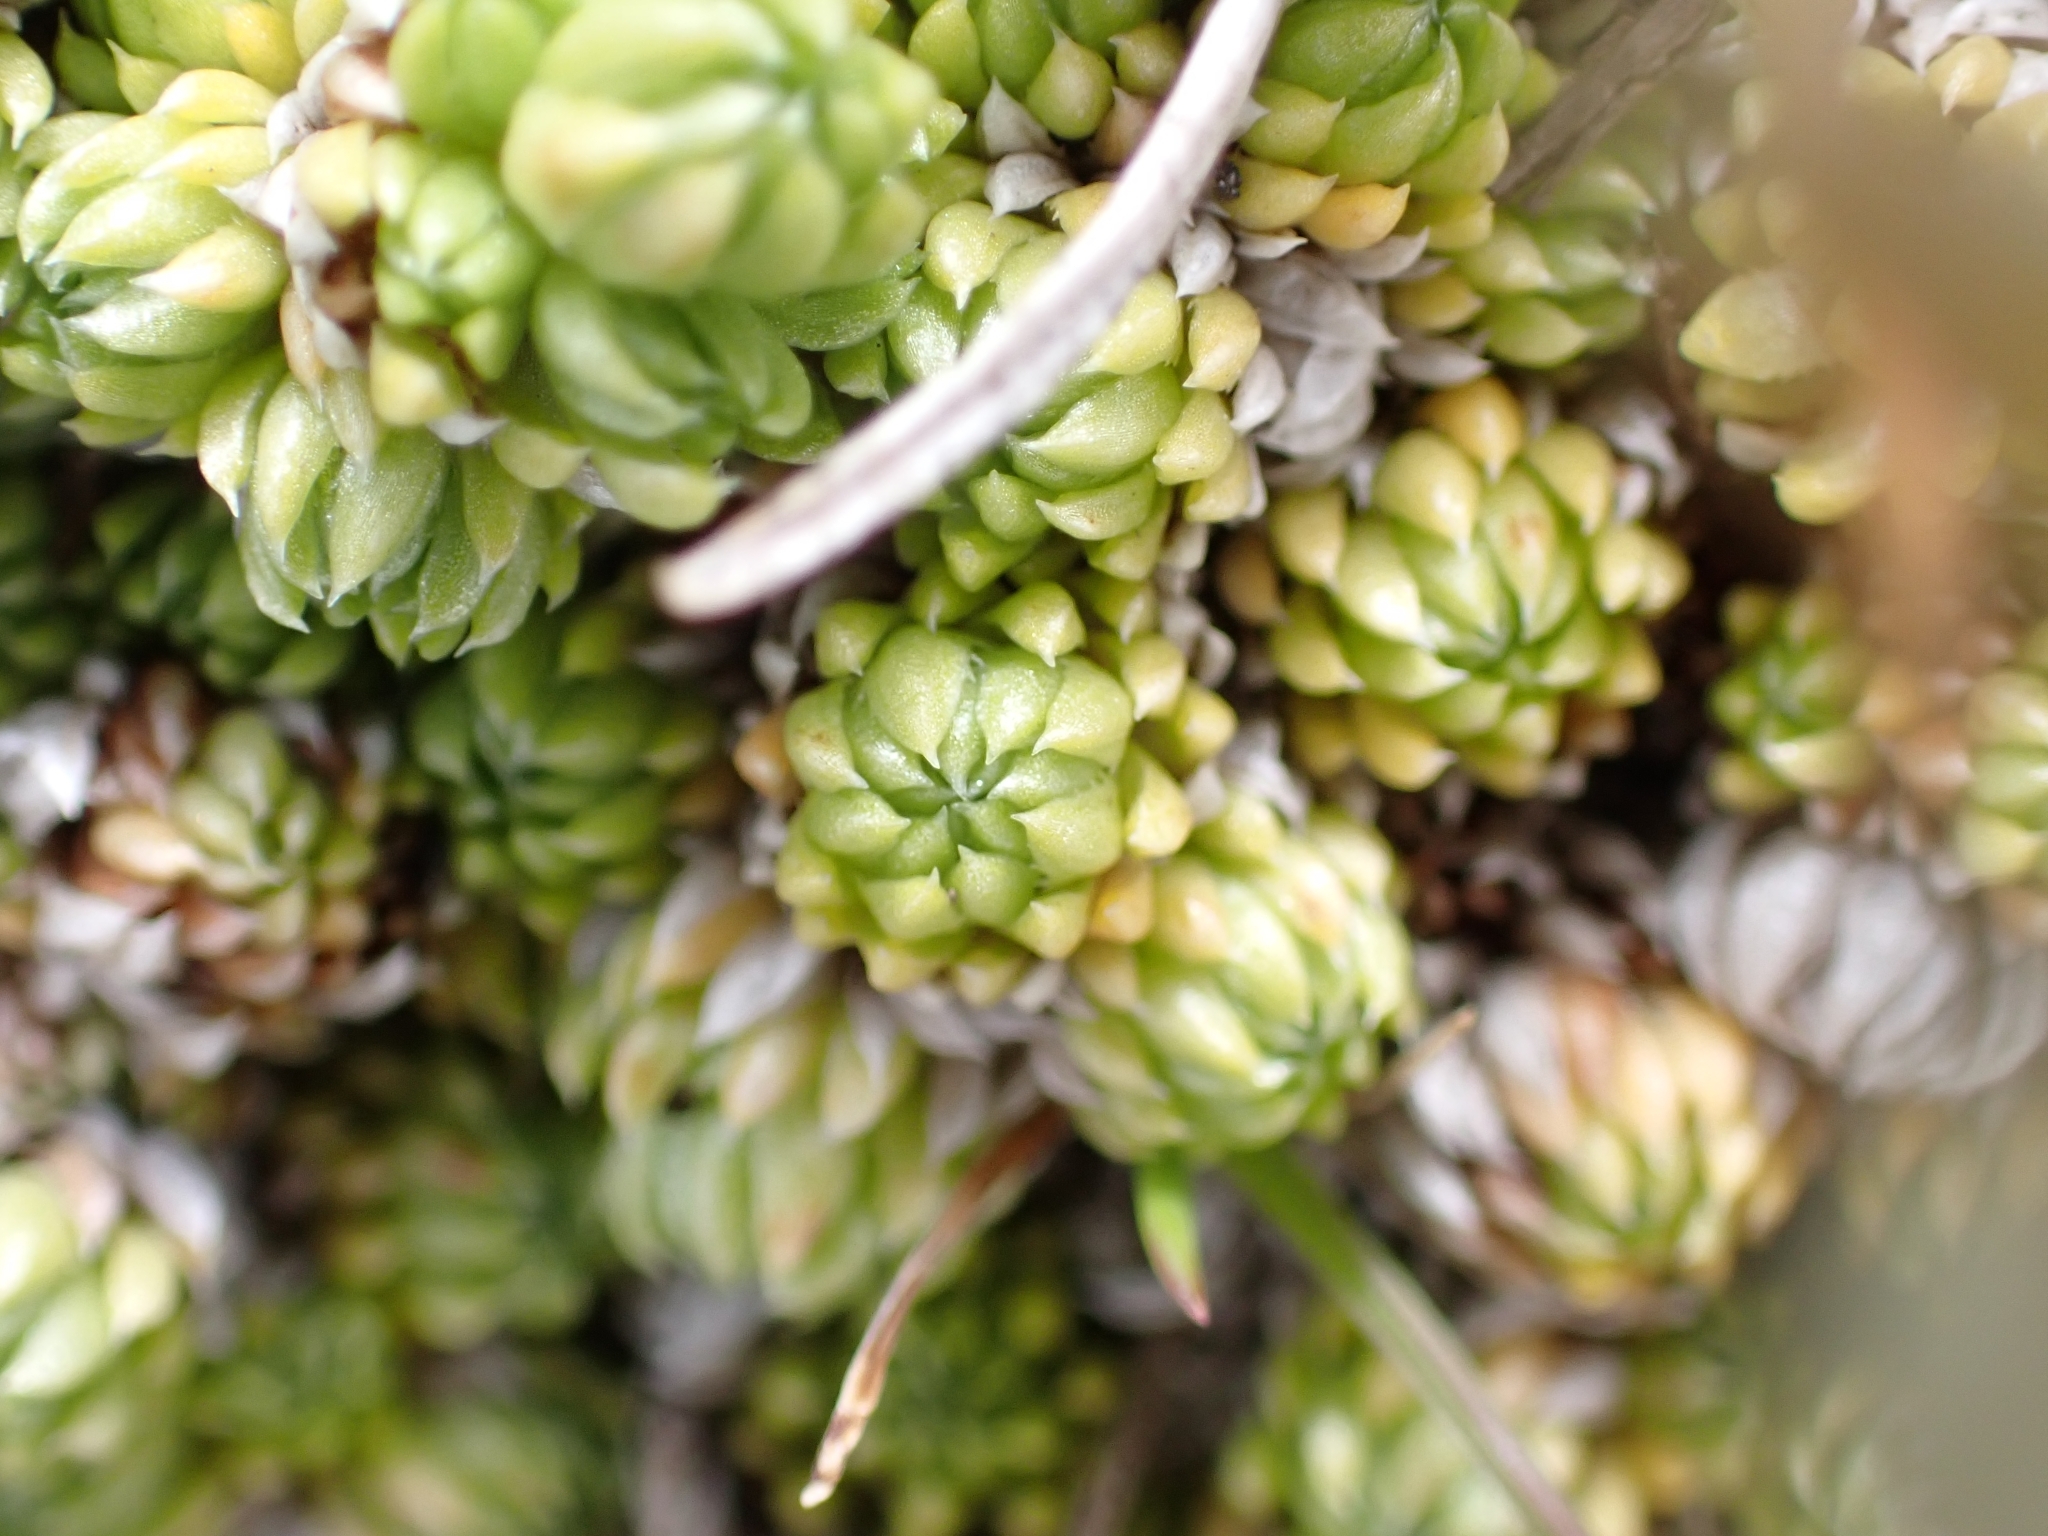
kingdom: Plantae
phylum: Tracheophyta
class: Magnoliopsida
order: Saxifragales
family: Saxifragaceae
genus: Saxifraga
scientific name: Saxifraga bryoides
